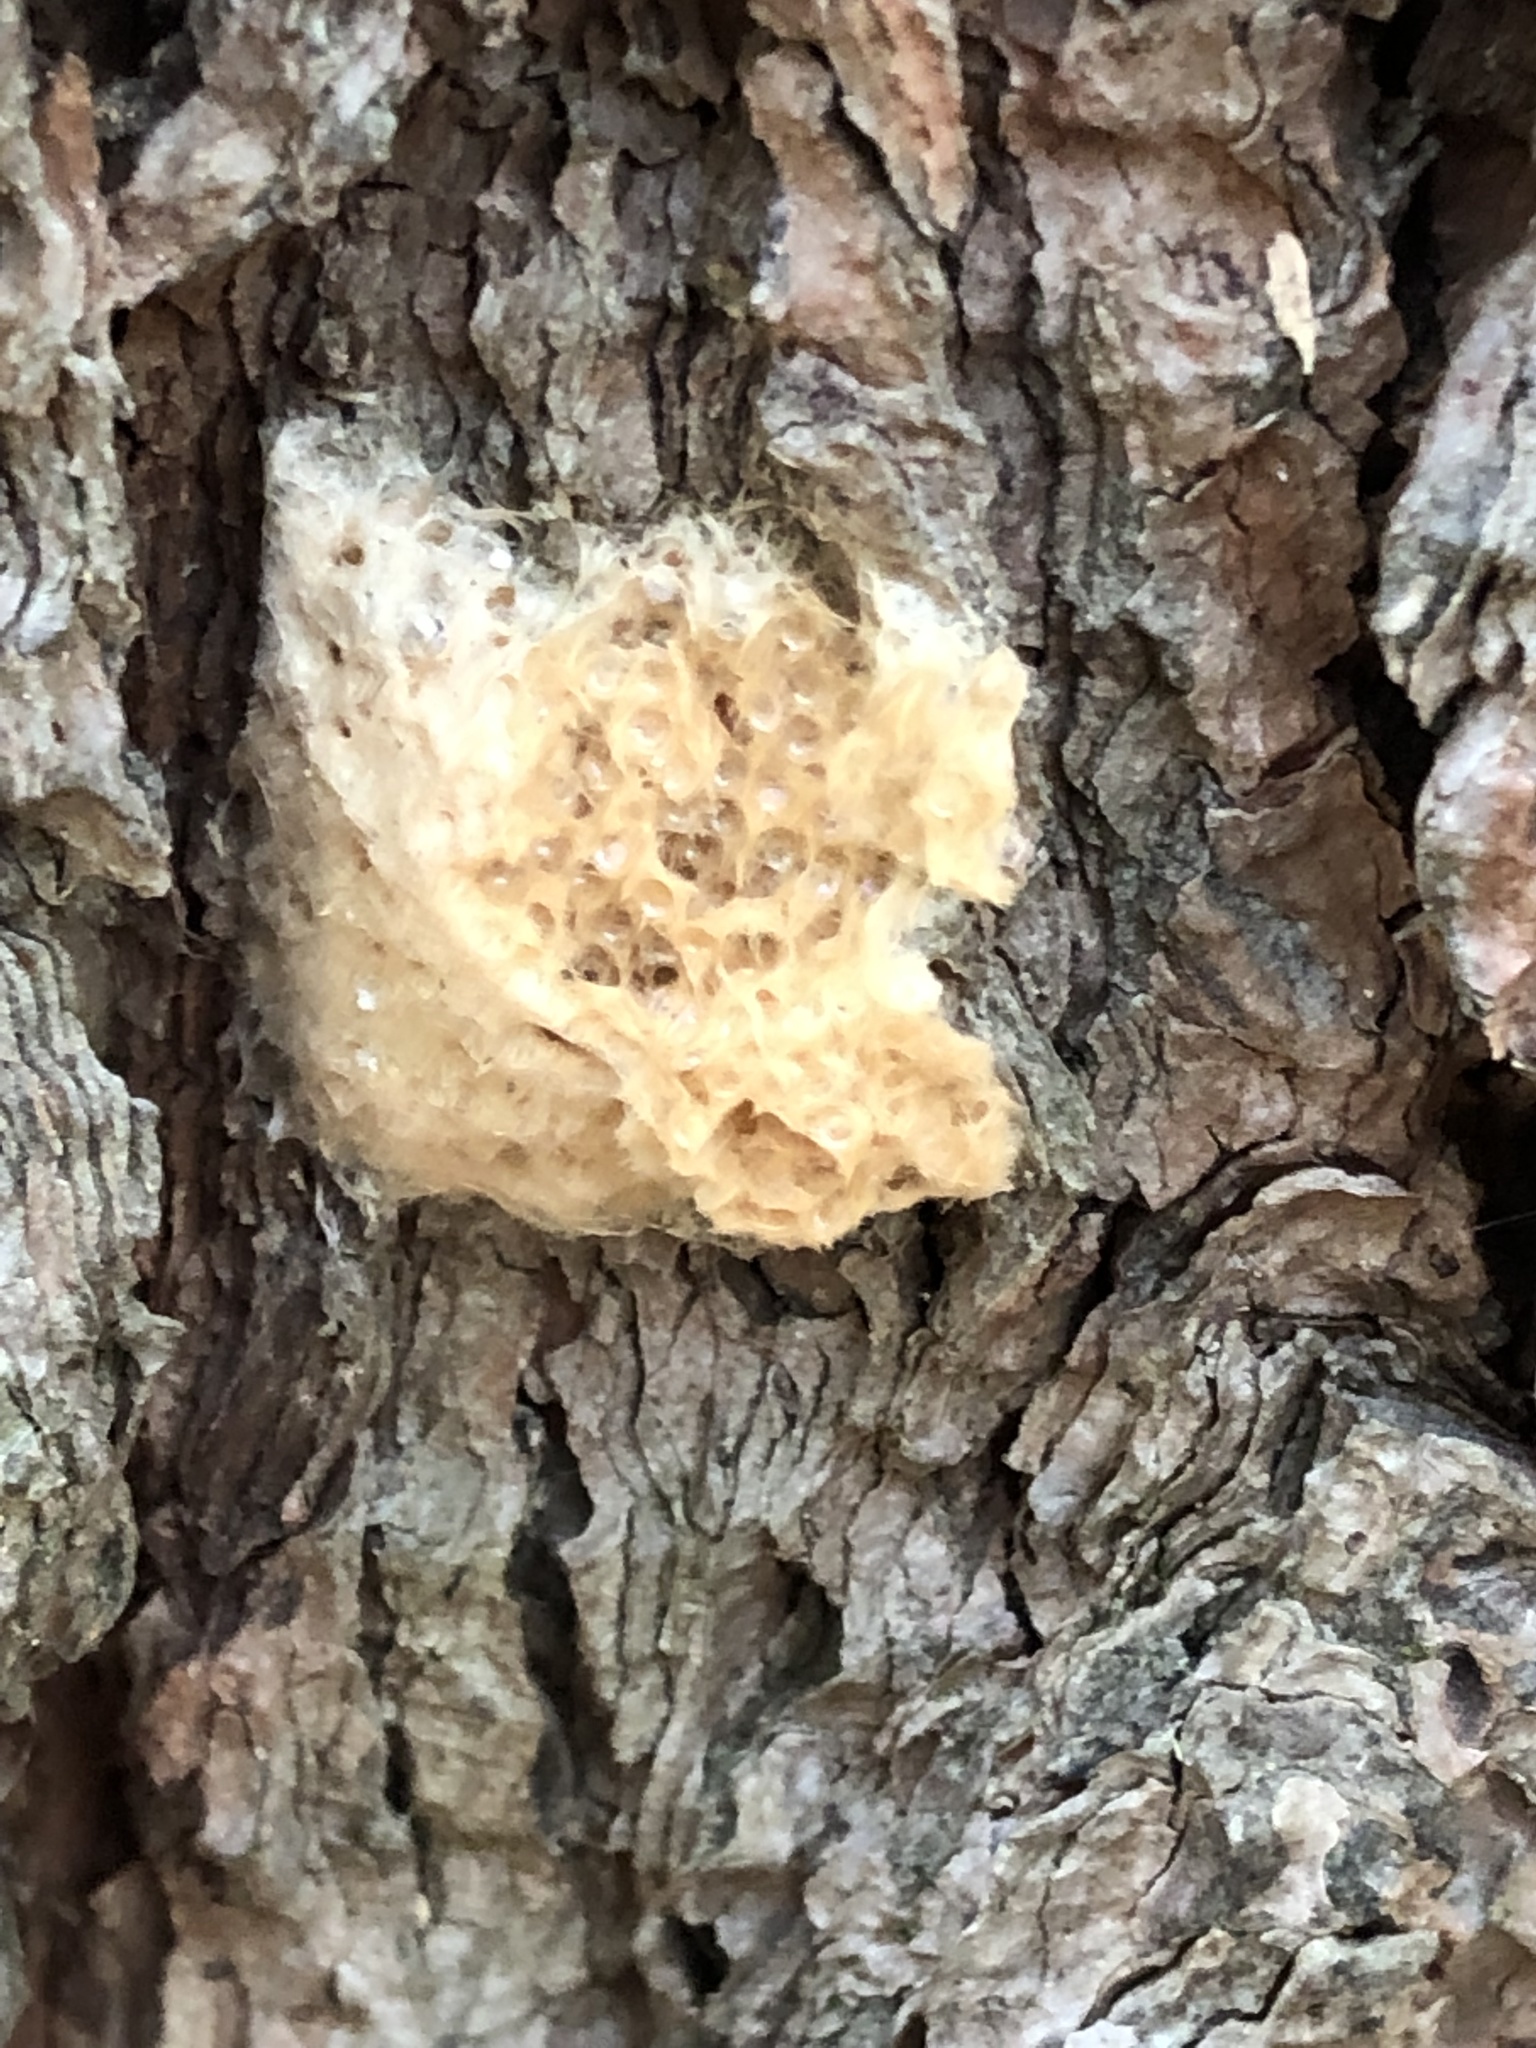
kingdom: Animalia
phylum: Arthropoda
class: Insecta
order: Lepidoptera
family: Erebidae
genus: Lymantria
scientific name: Lymantria dispar
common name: Gypsy moth
